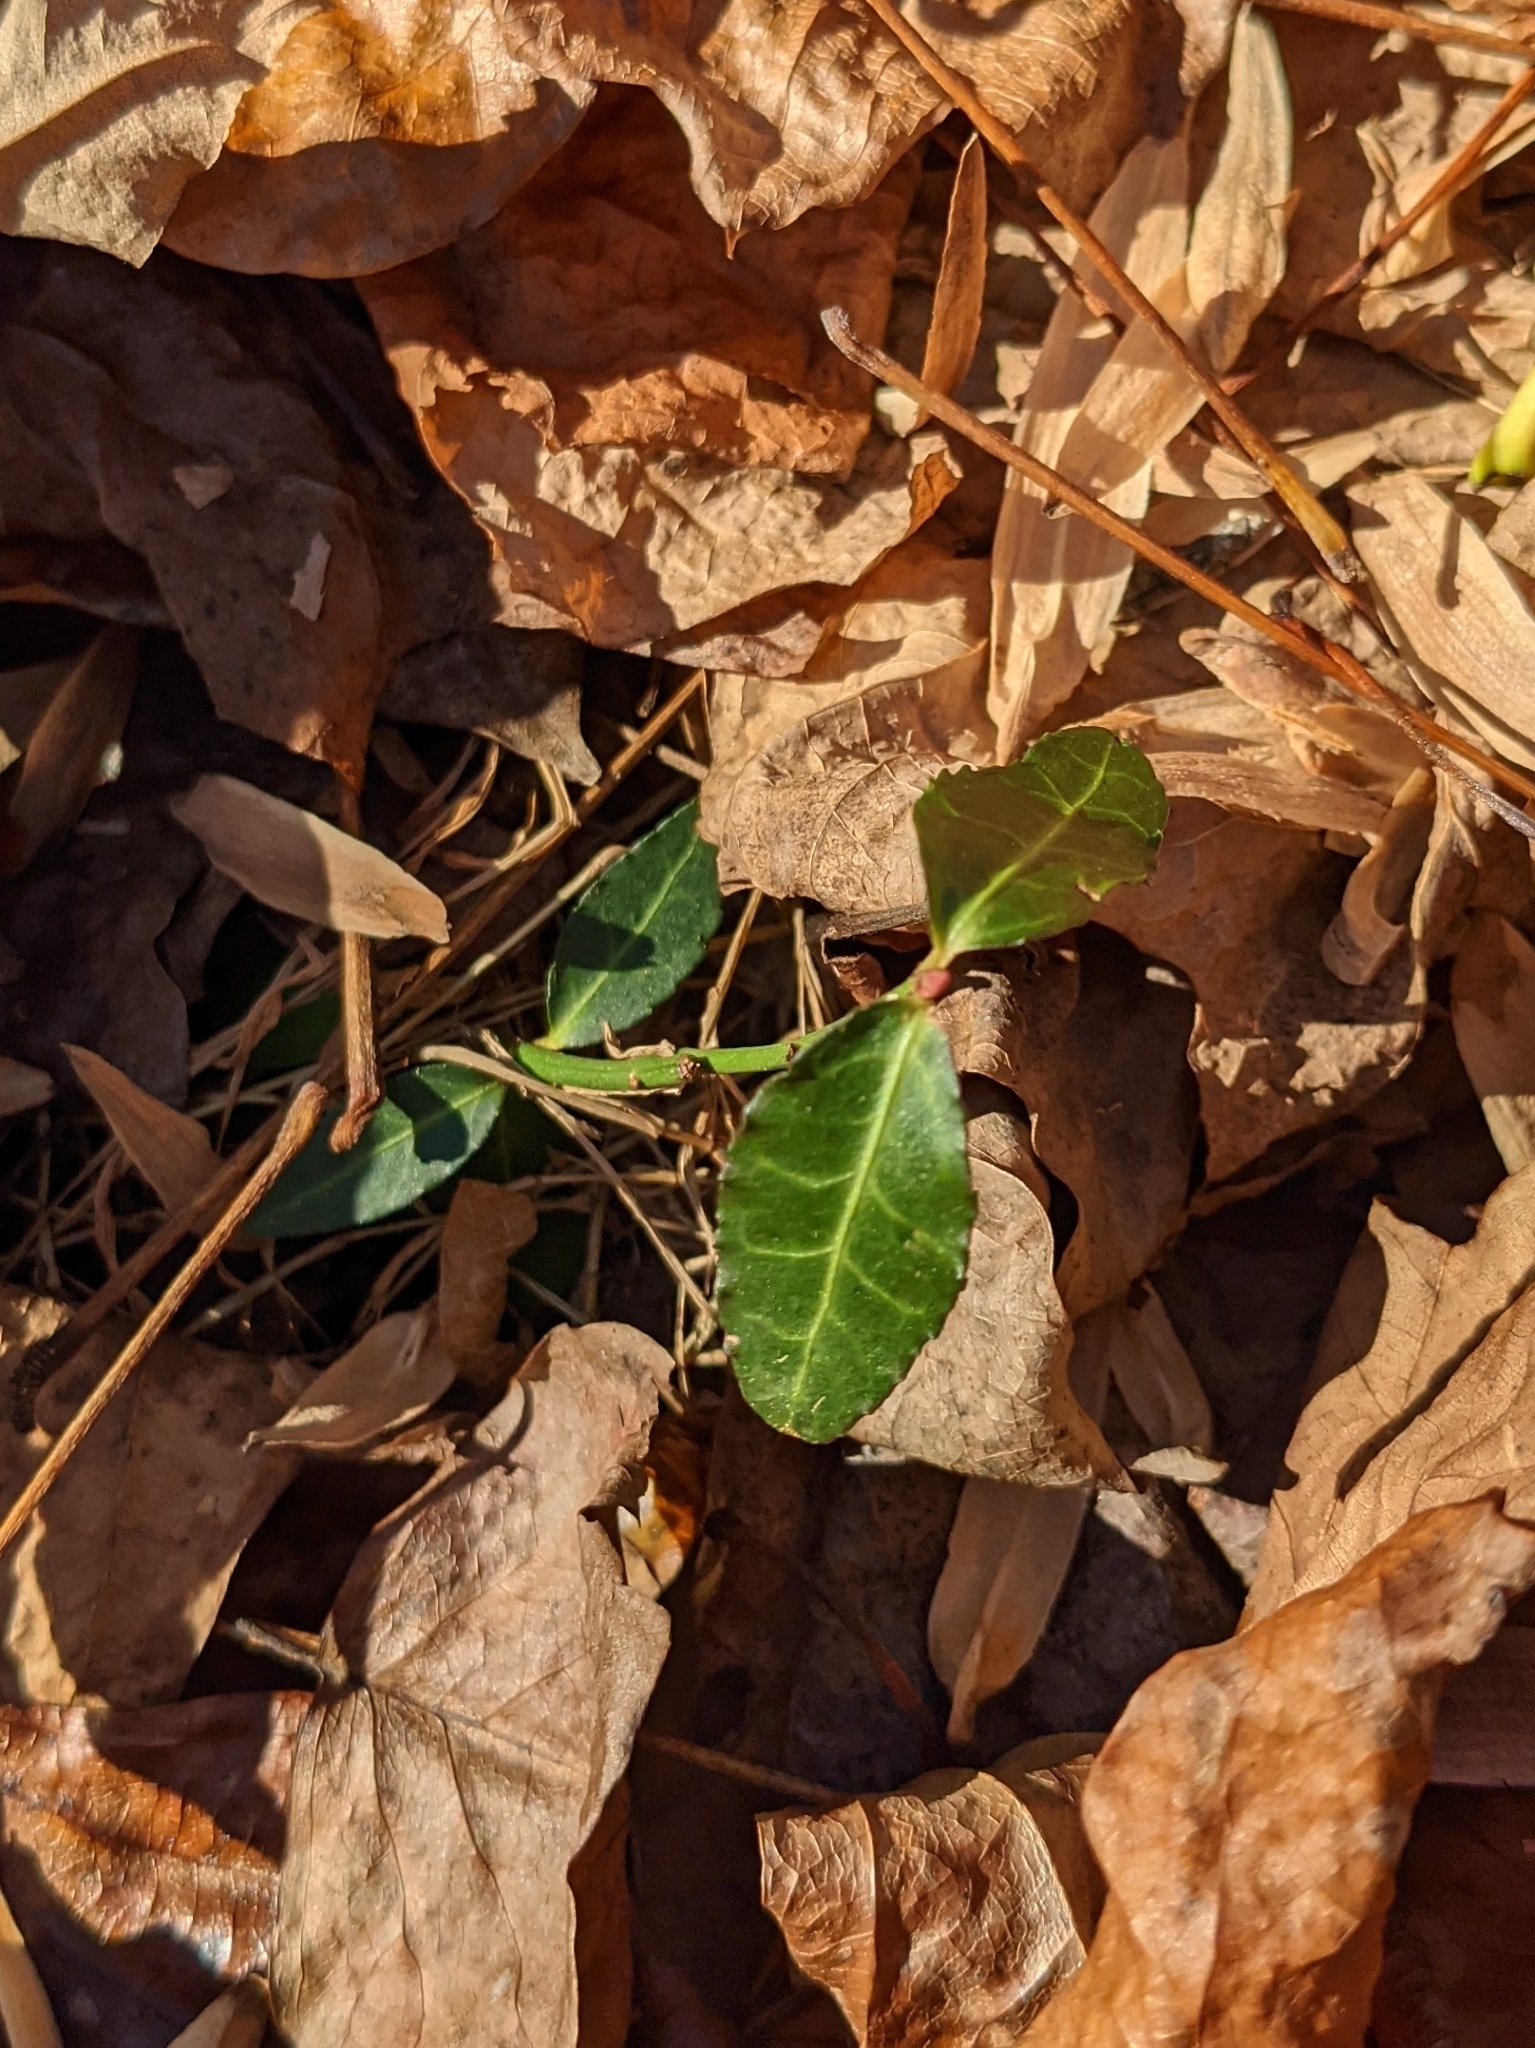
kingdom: Plantae
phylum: Tracheophyta
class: Magnoliopsida
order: Celastrales
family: Celastraceae
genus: Euonymus
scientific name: Euonymus fortunei
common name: Climbing euonymus
